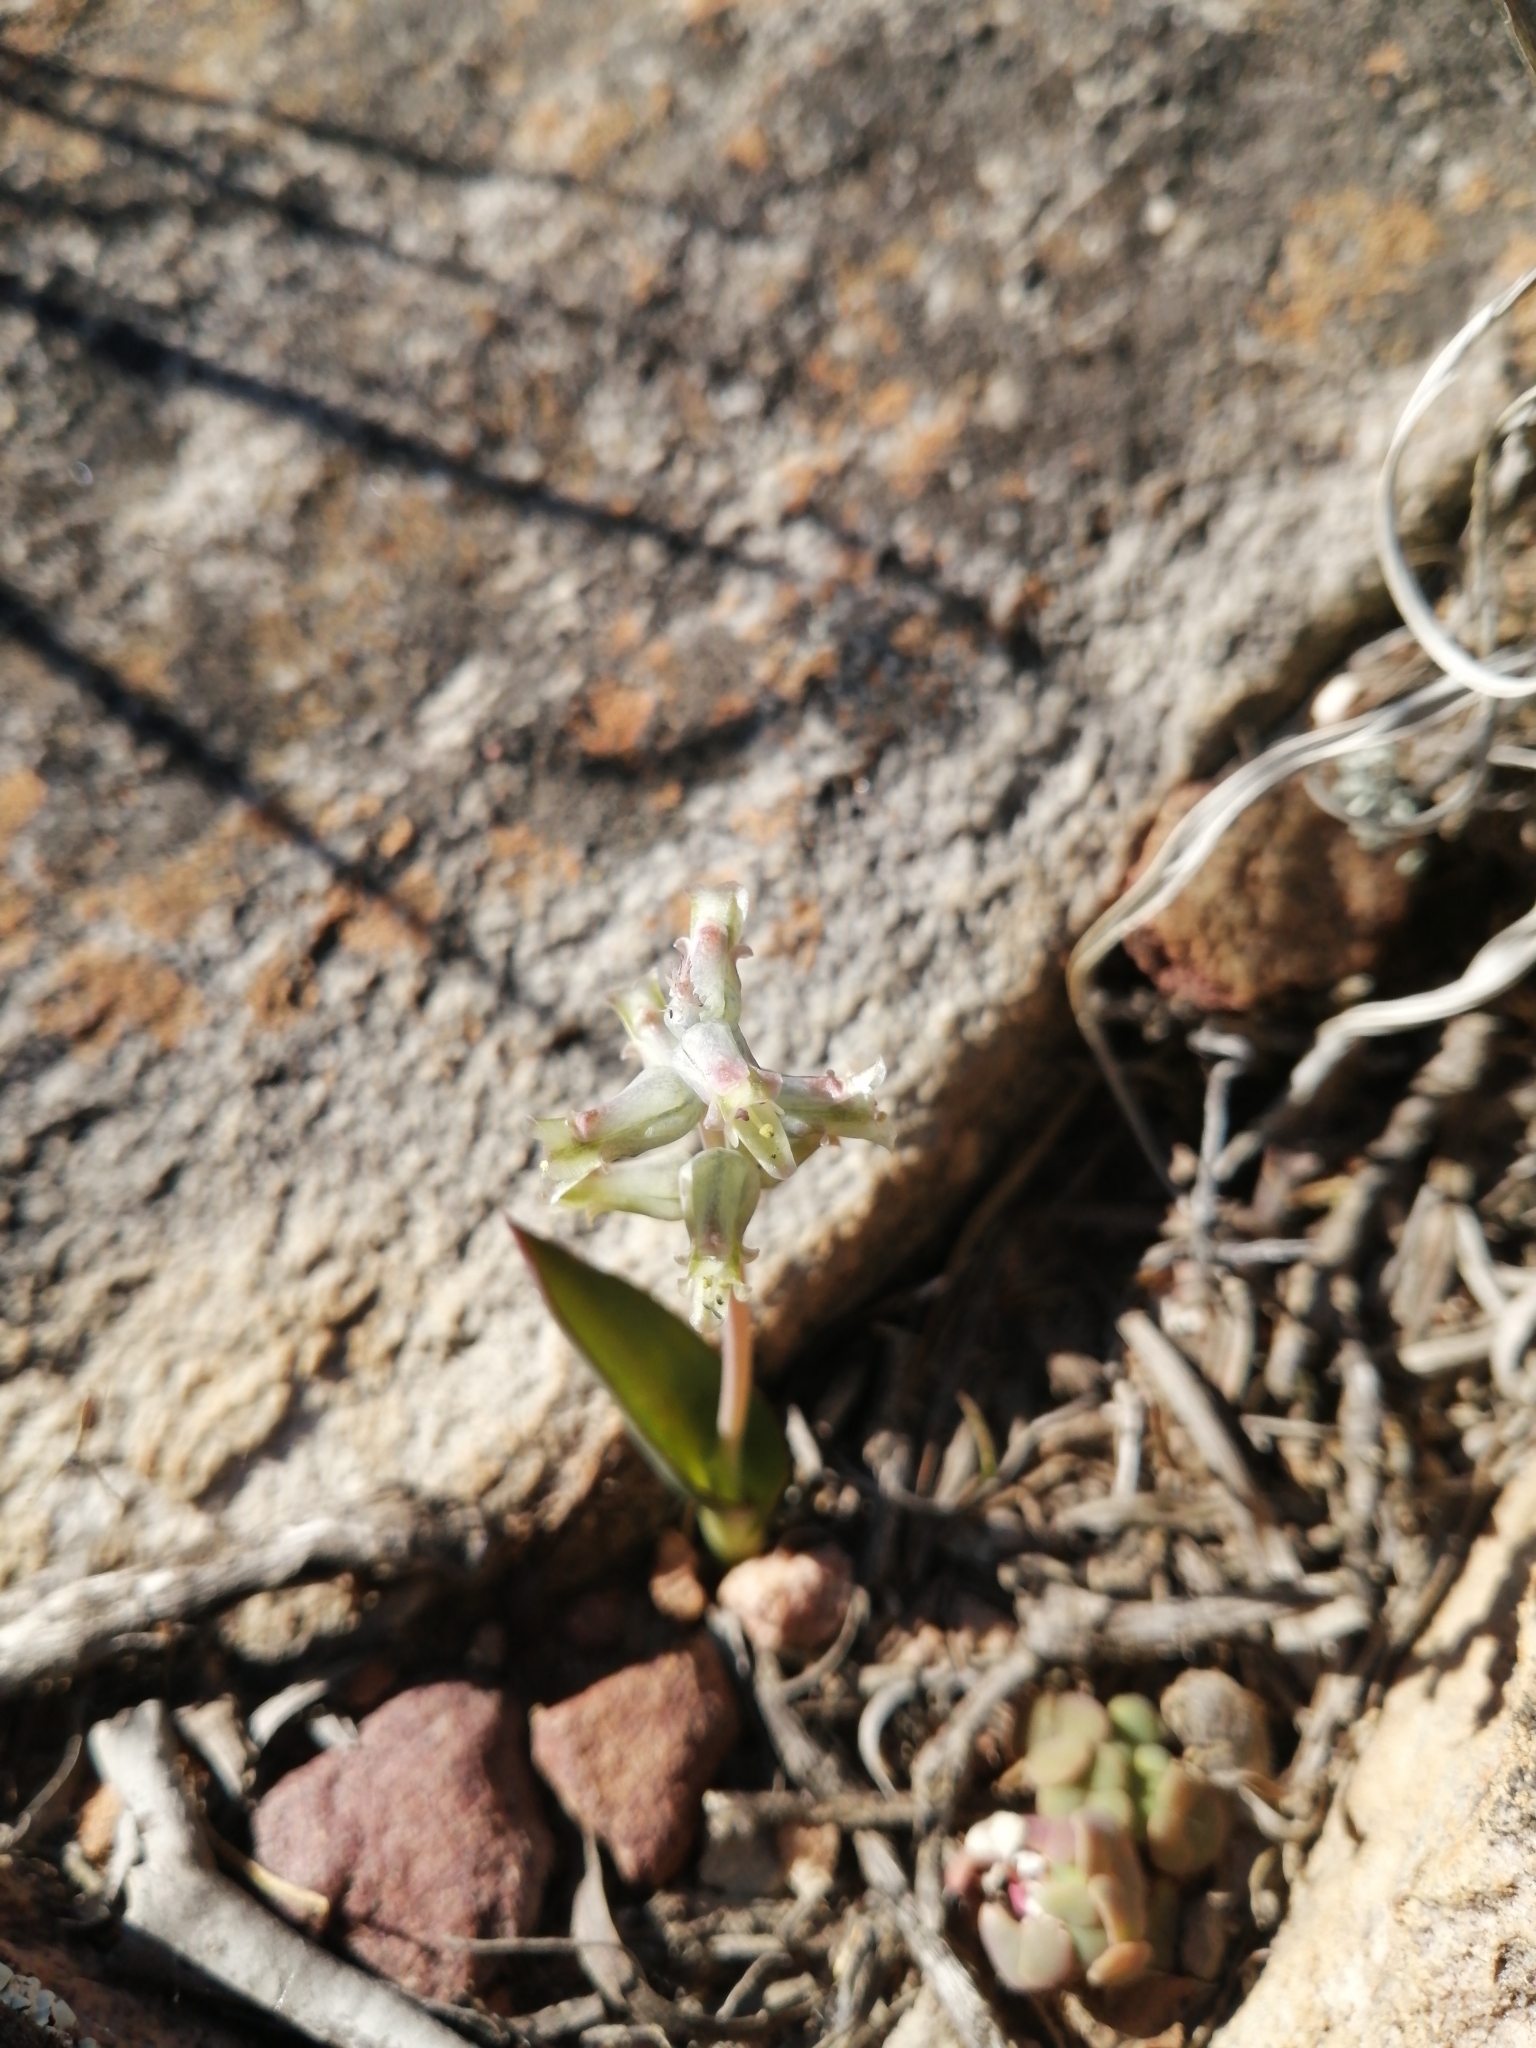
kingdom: Plantae
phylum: Tracheophyta
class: Liliopsida
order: Asparagales
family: Asparagaceae
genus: Lachenalia
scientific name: Lachenalia aurioliae
